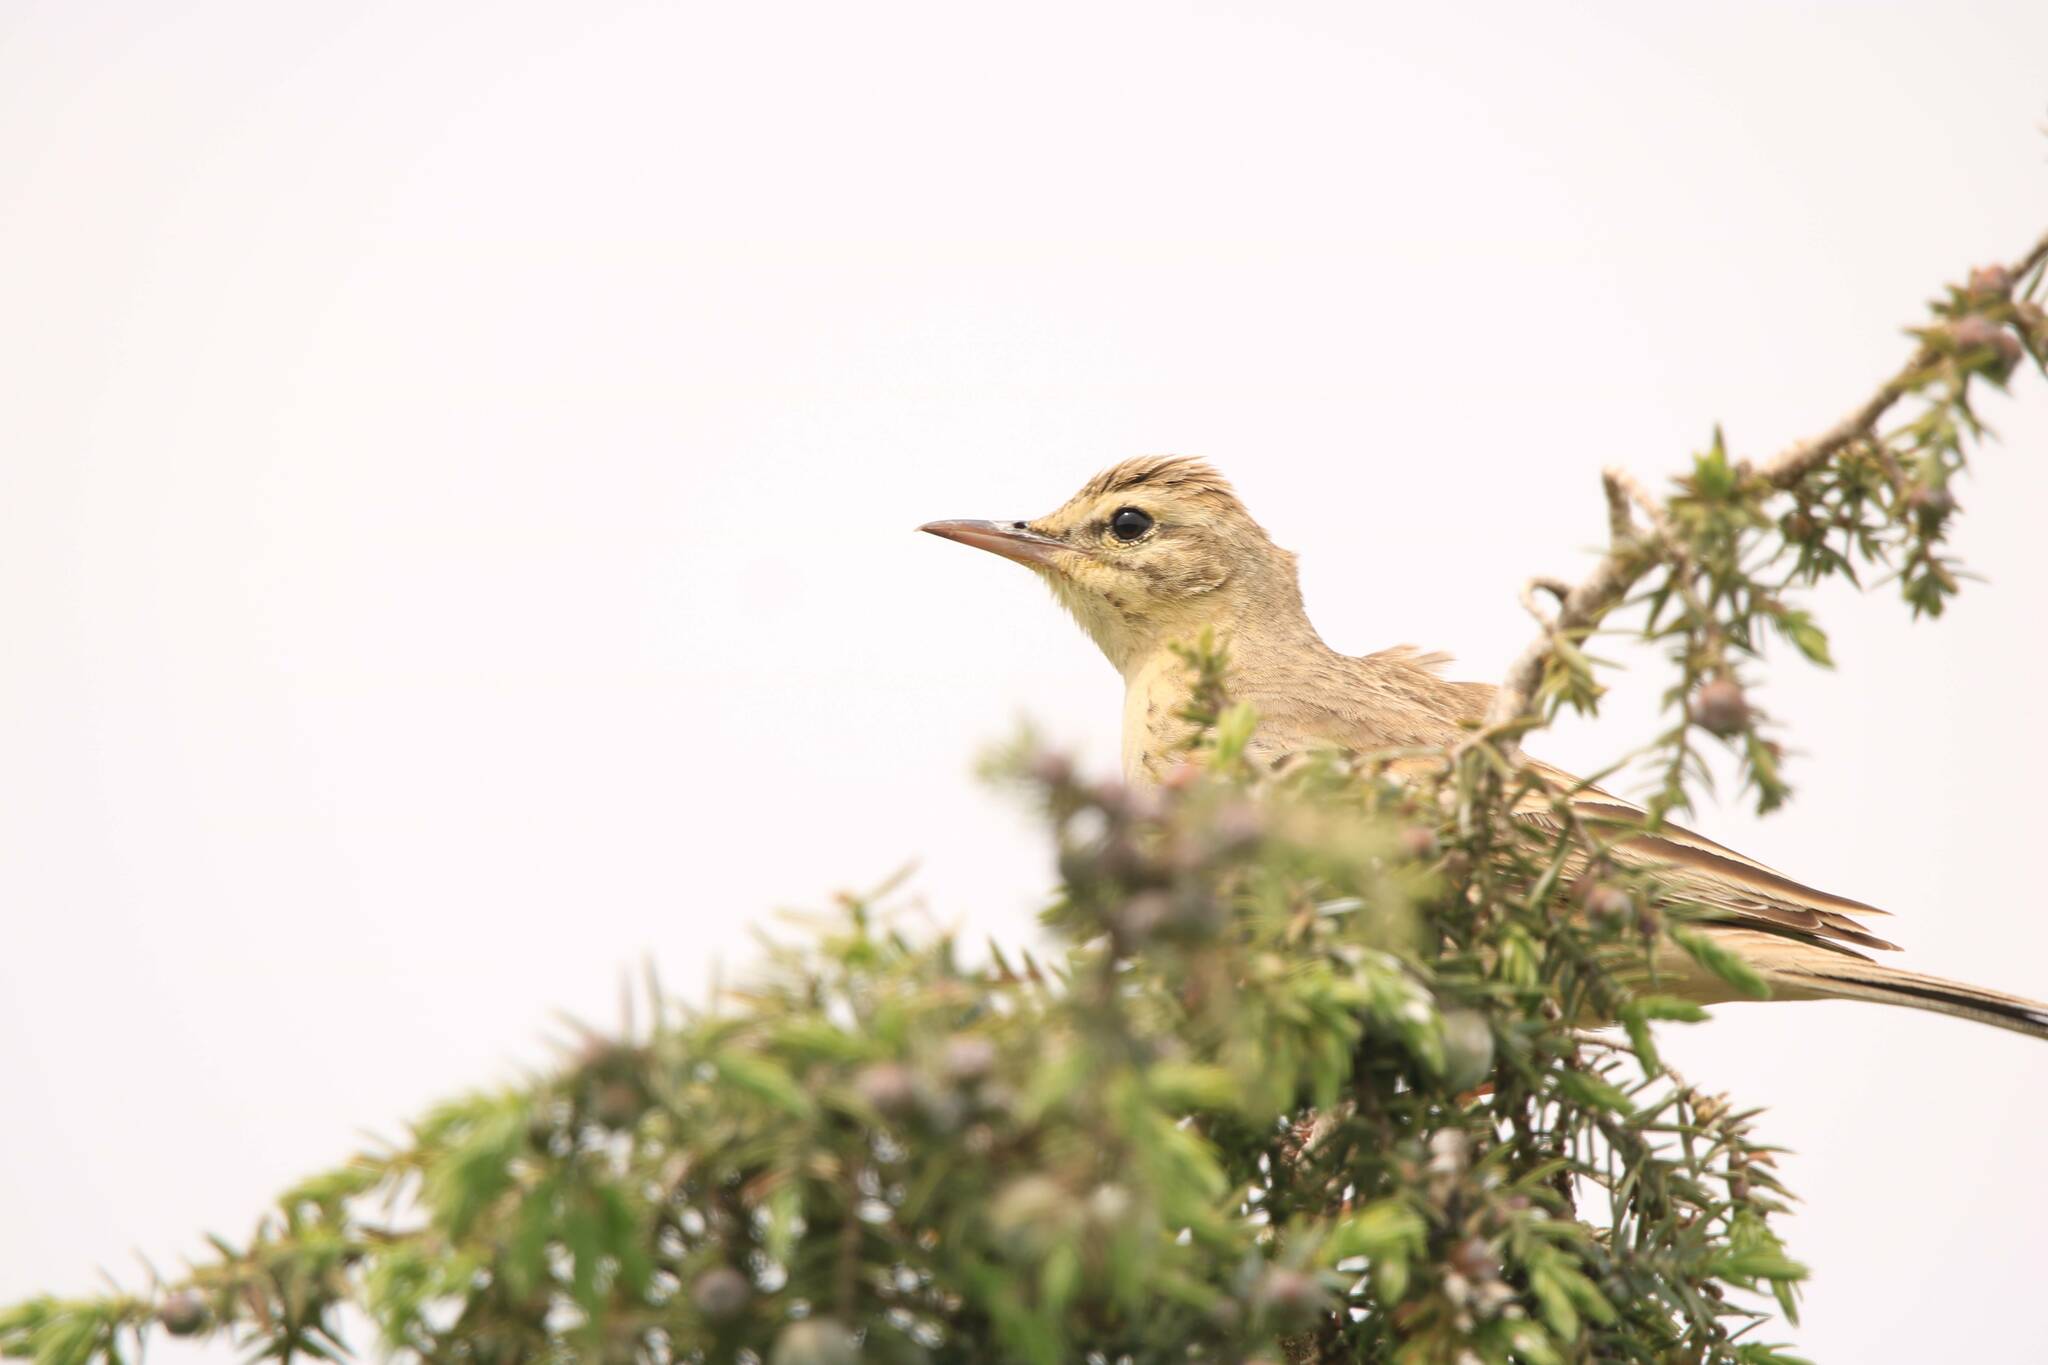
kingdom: Animalia
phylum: Chordata
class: Aves
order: Passeriformes
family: Motacillidae
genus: Anthus
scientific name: Anthus campestris
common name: Tawny pipit
